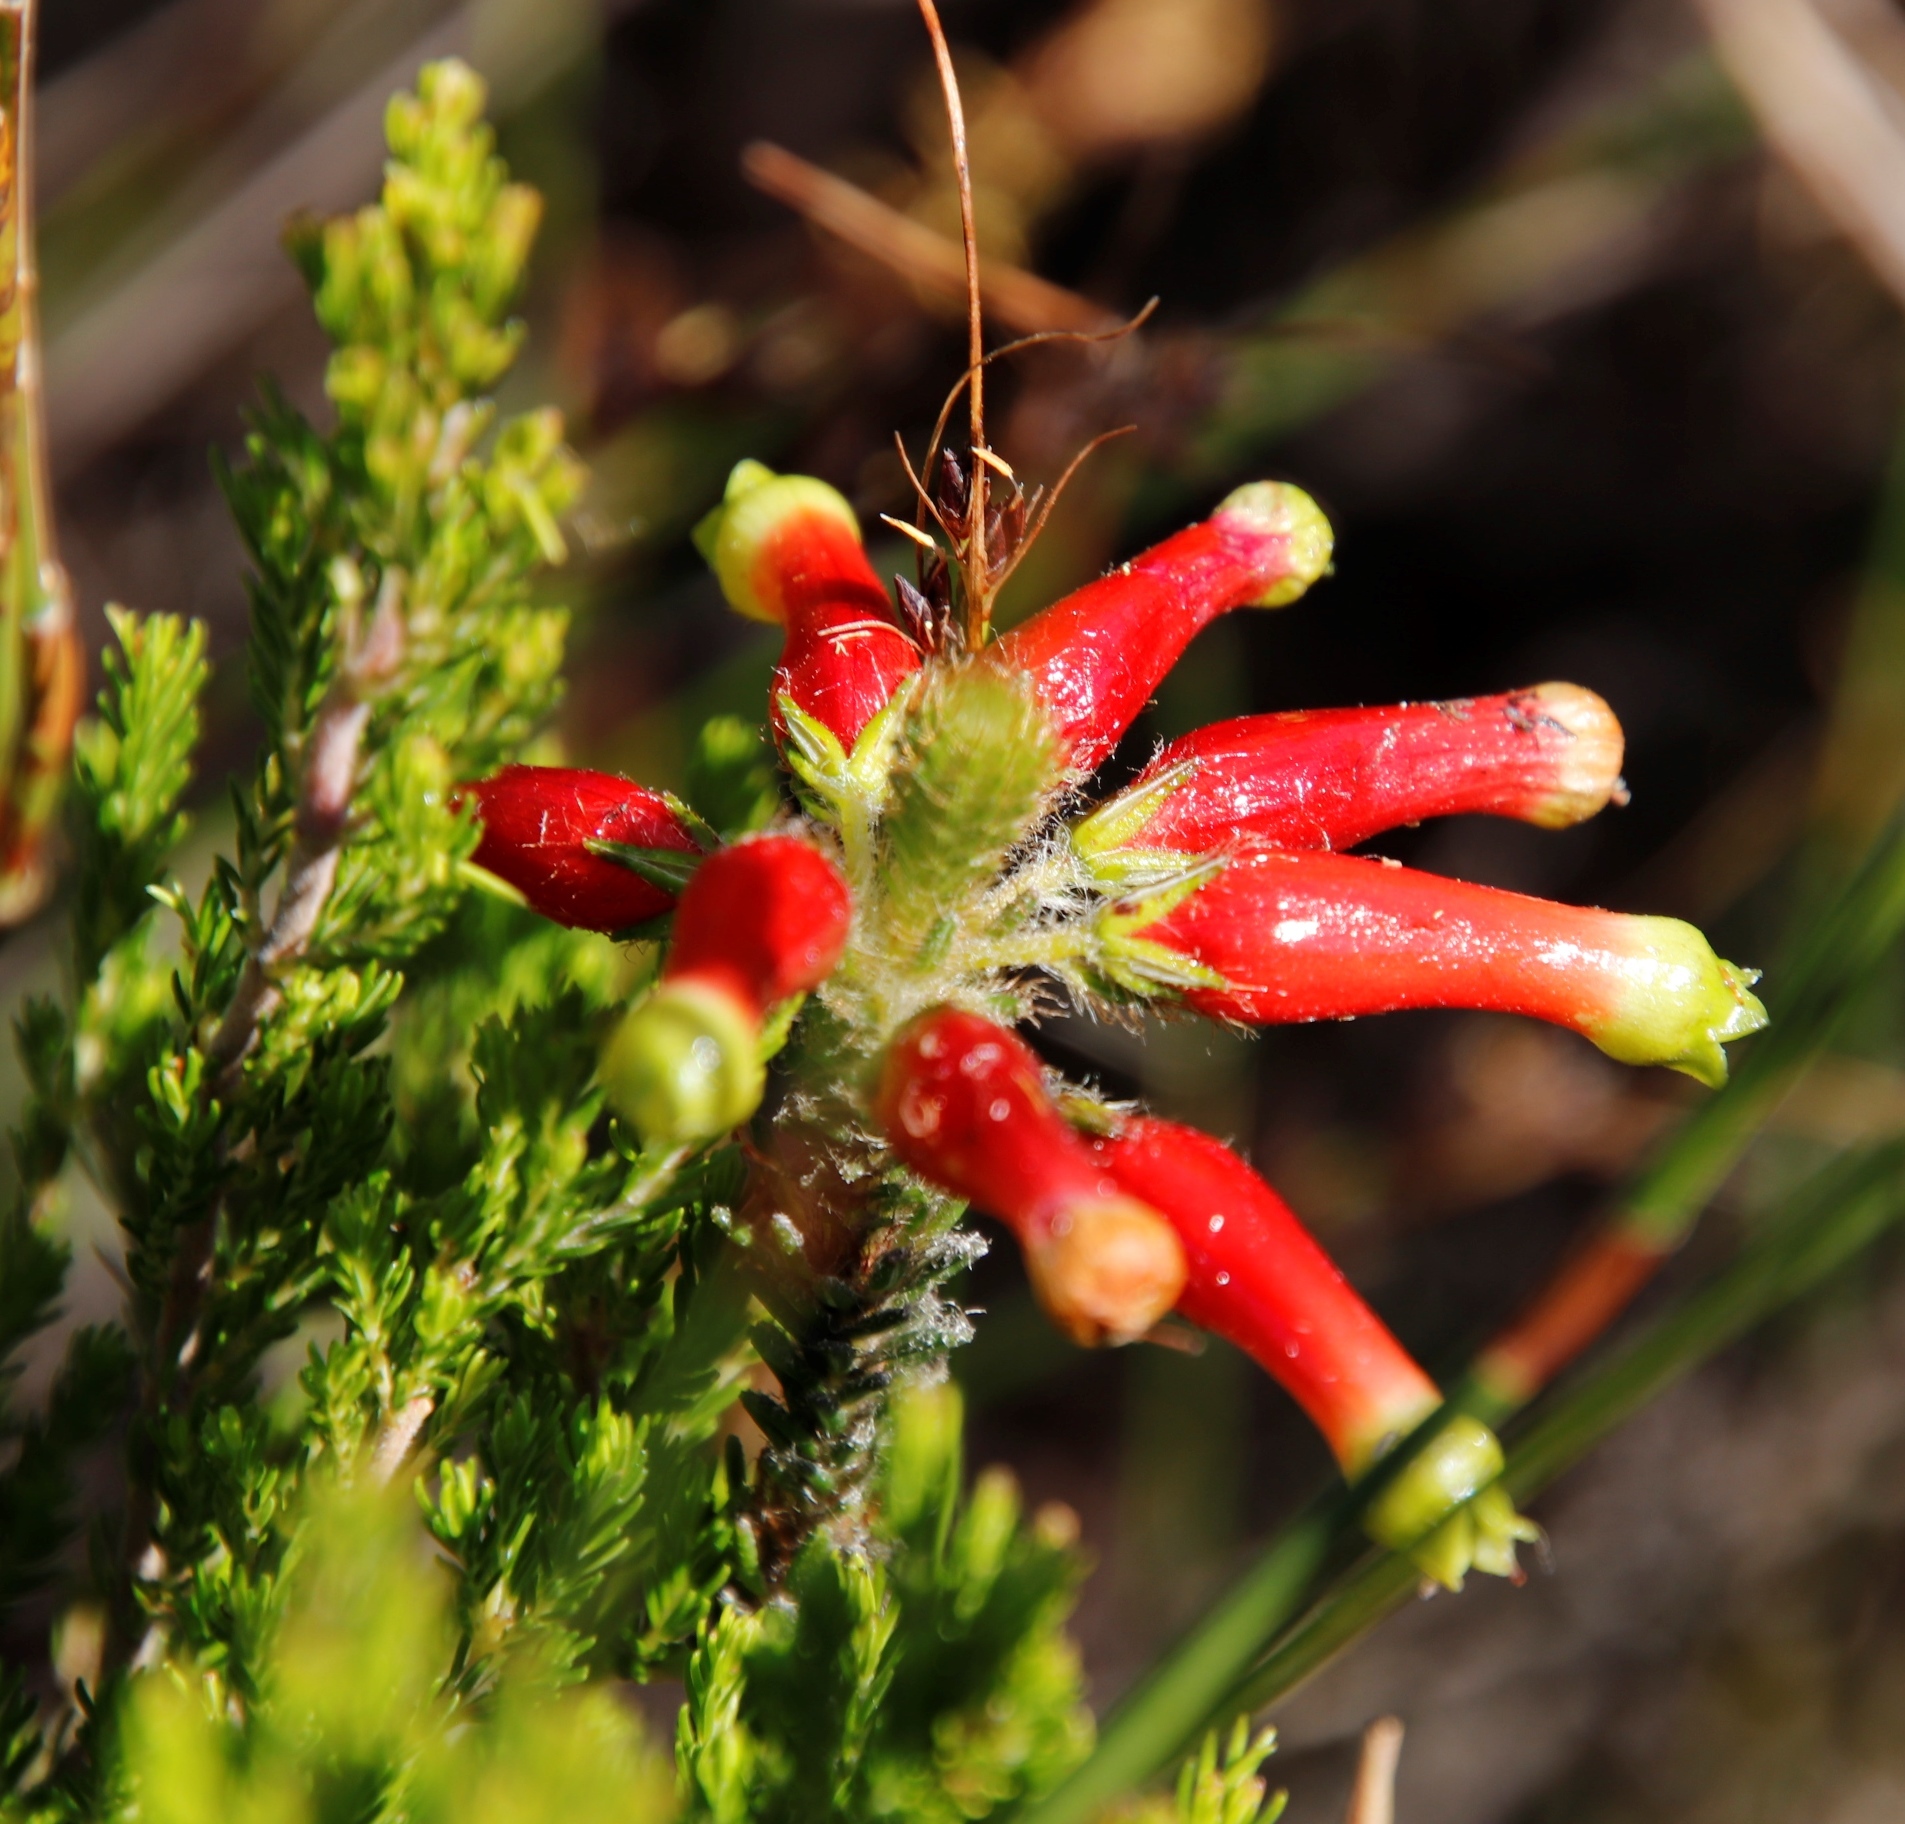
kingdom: Plantae
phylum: Tracheophyta
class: Magnoliopsida
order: Ericales
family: Ericaceae
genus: Erica
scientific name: Erica massonii
